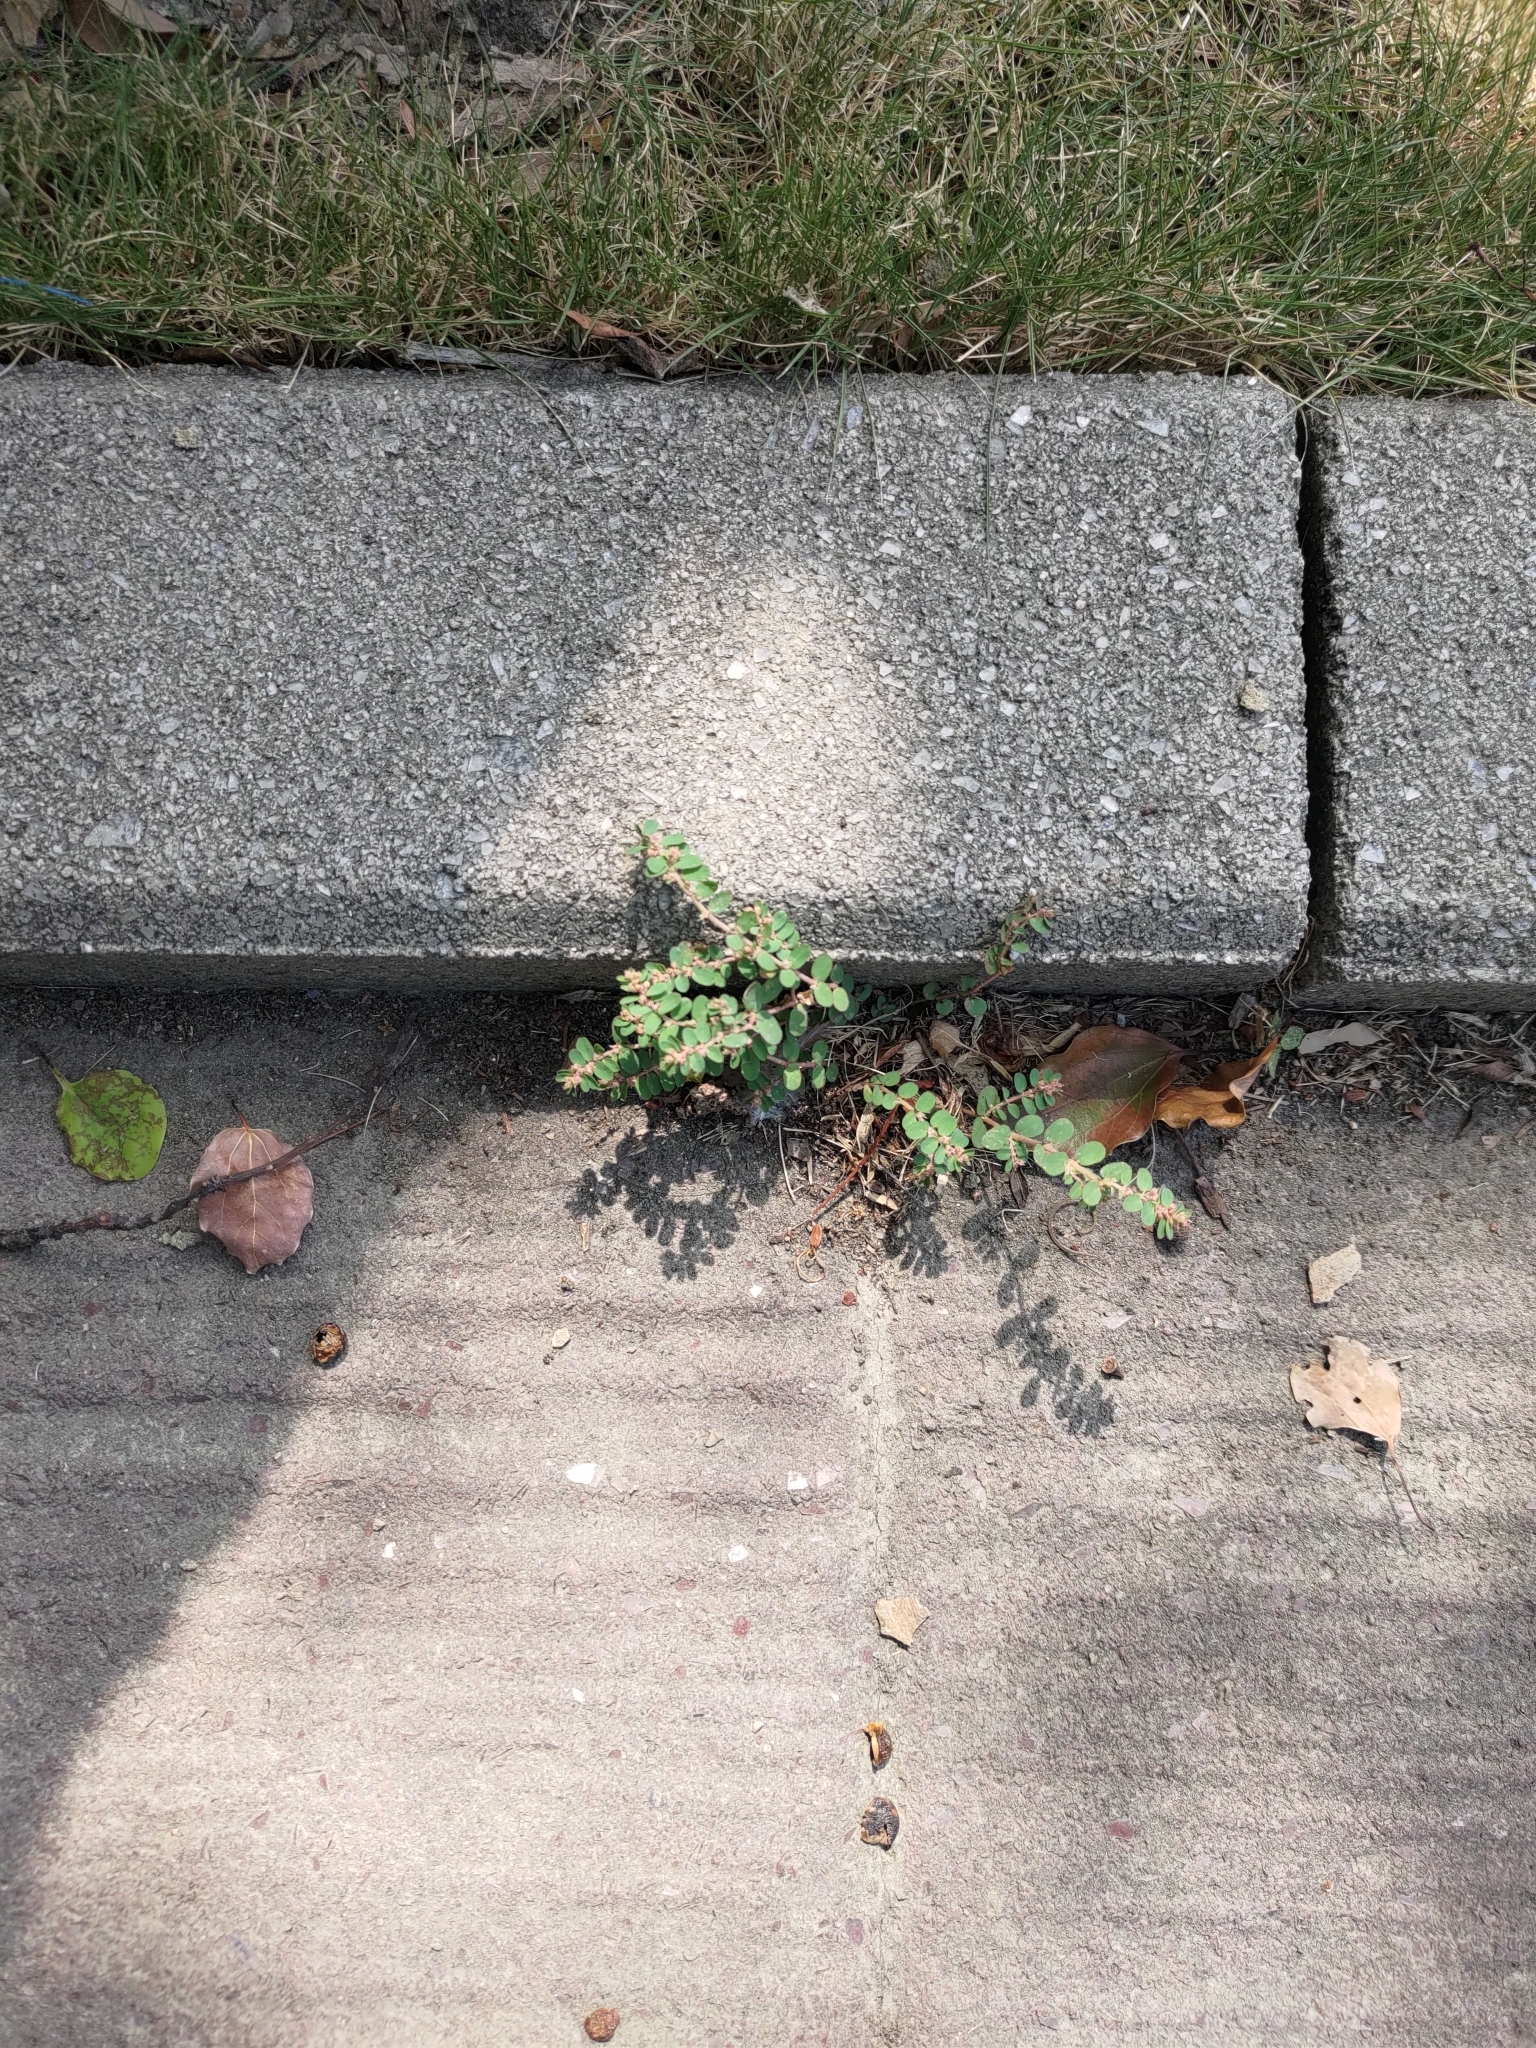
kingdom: Plantae
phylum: Tracheophyta
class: Magnoliopsida
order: Malpighiales
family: Euphorbiaceae
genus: Euphorbia
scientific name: Euphorbia thymifolia
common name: Gulf sandmat
